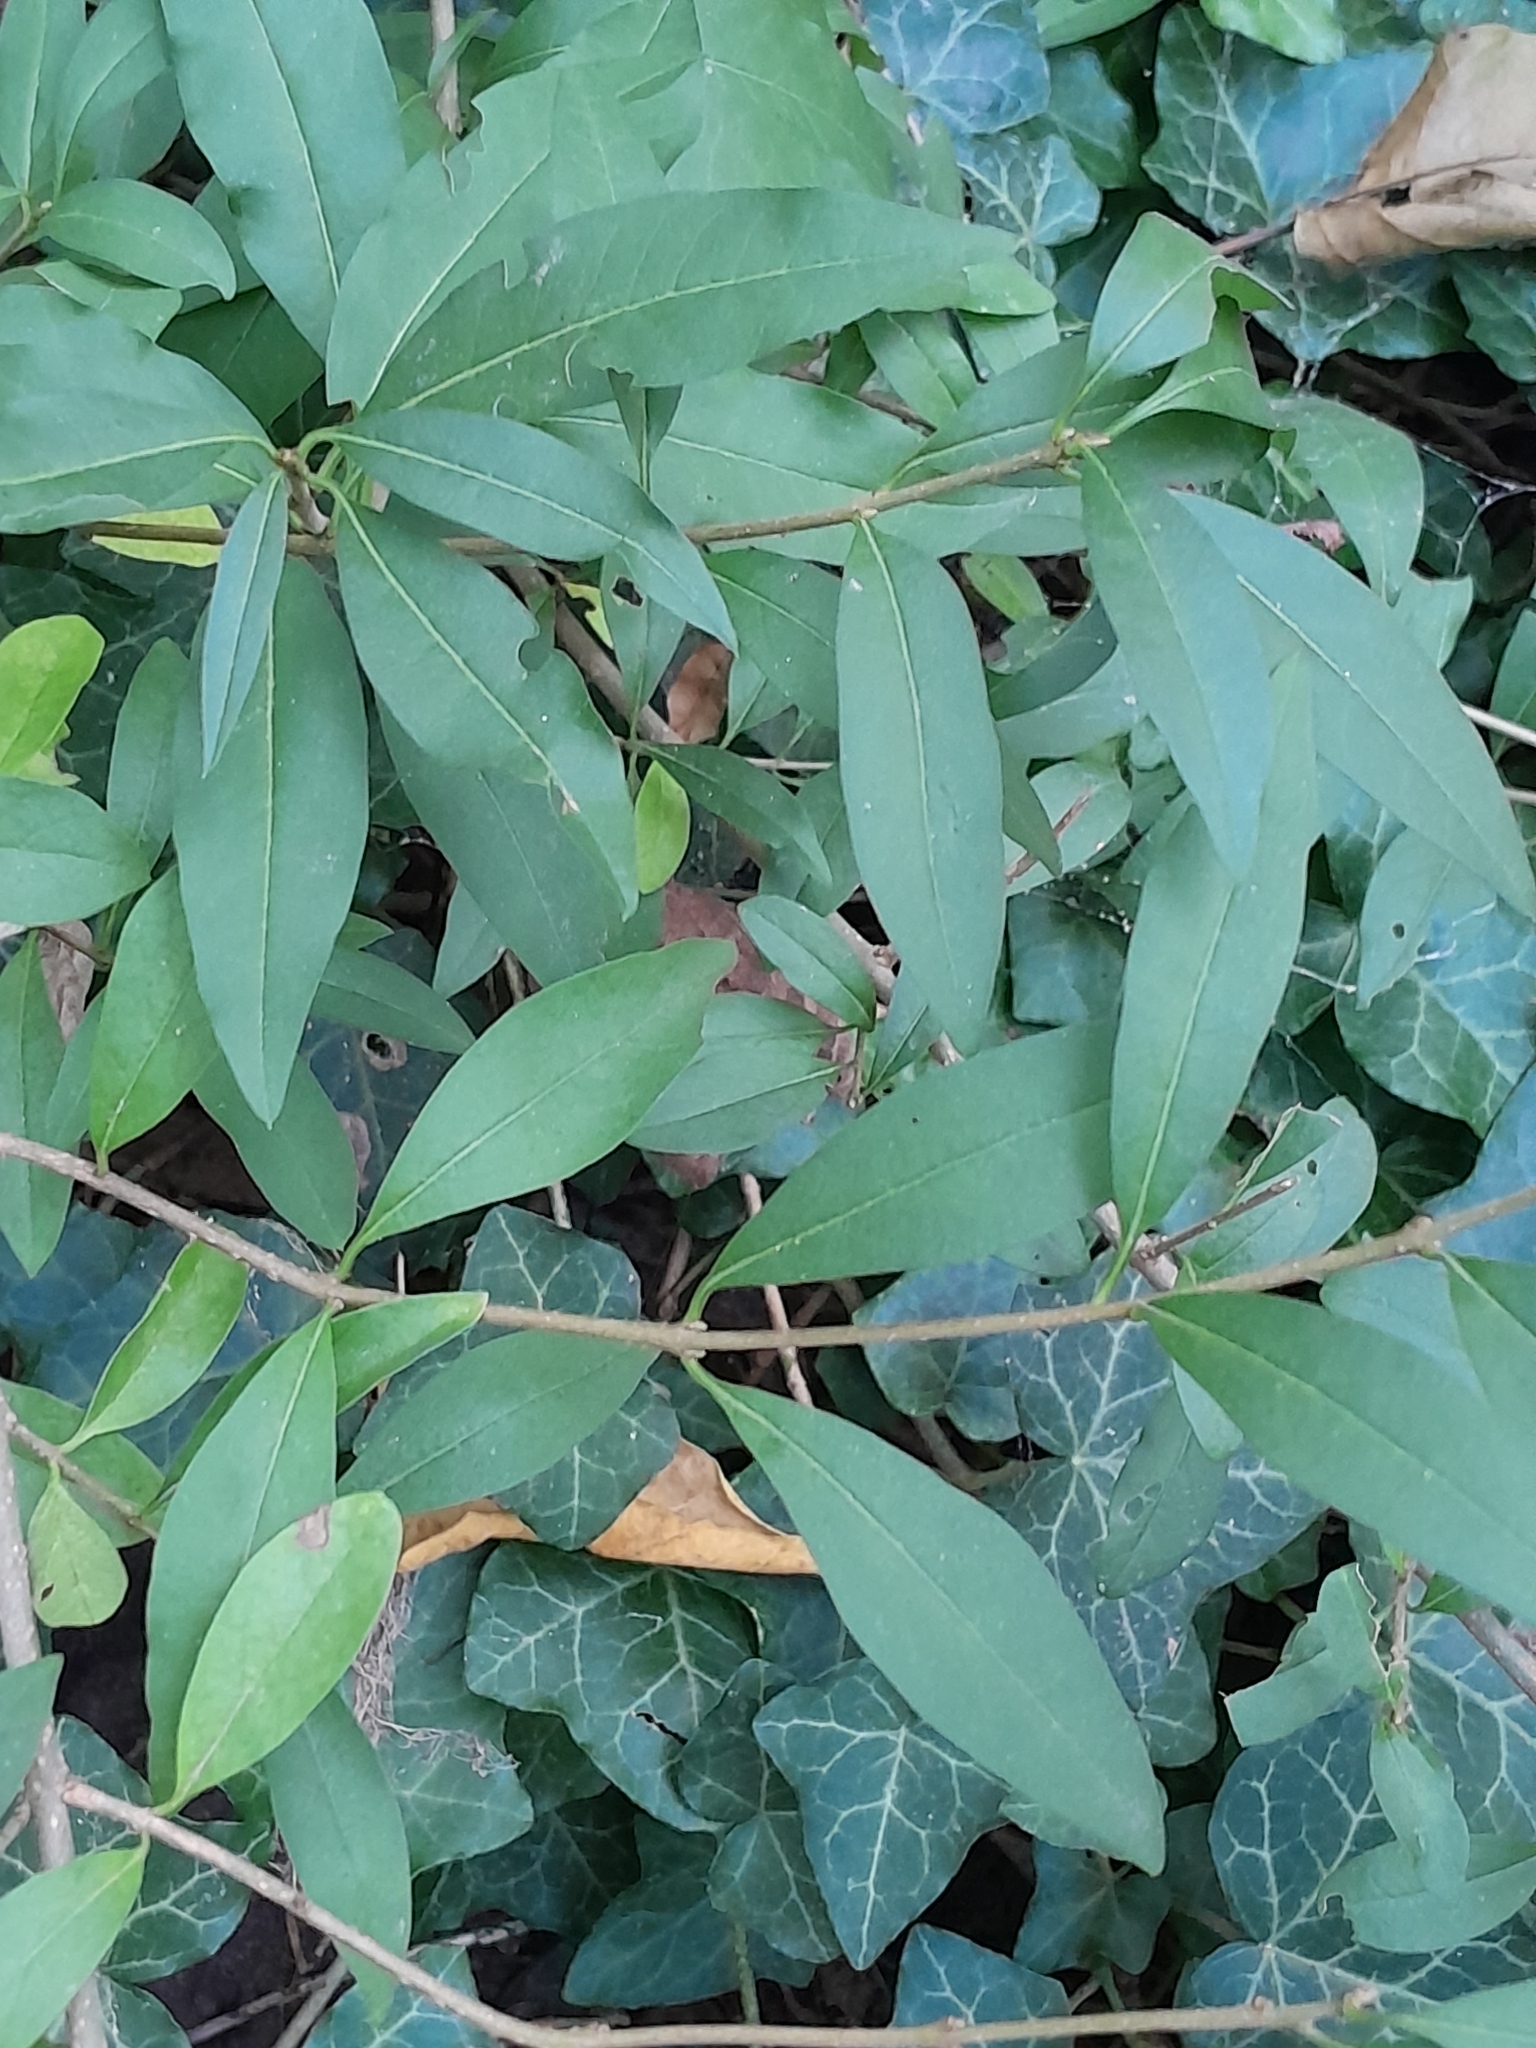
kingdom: Plantae
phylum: Tracheophyta
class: Magnoliopsida
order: Lamiales
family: Oleaceae
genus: Ligustrum
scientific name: Ligustrum vulgare
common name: Wild privet
